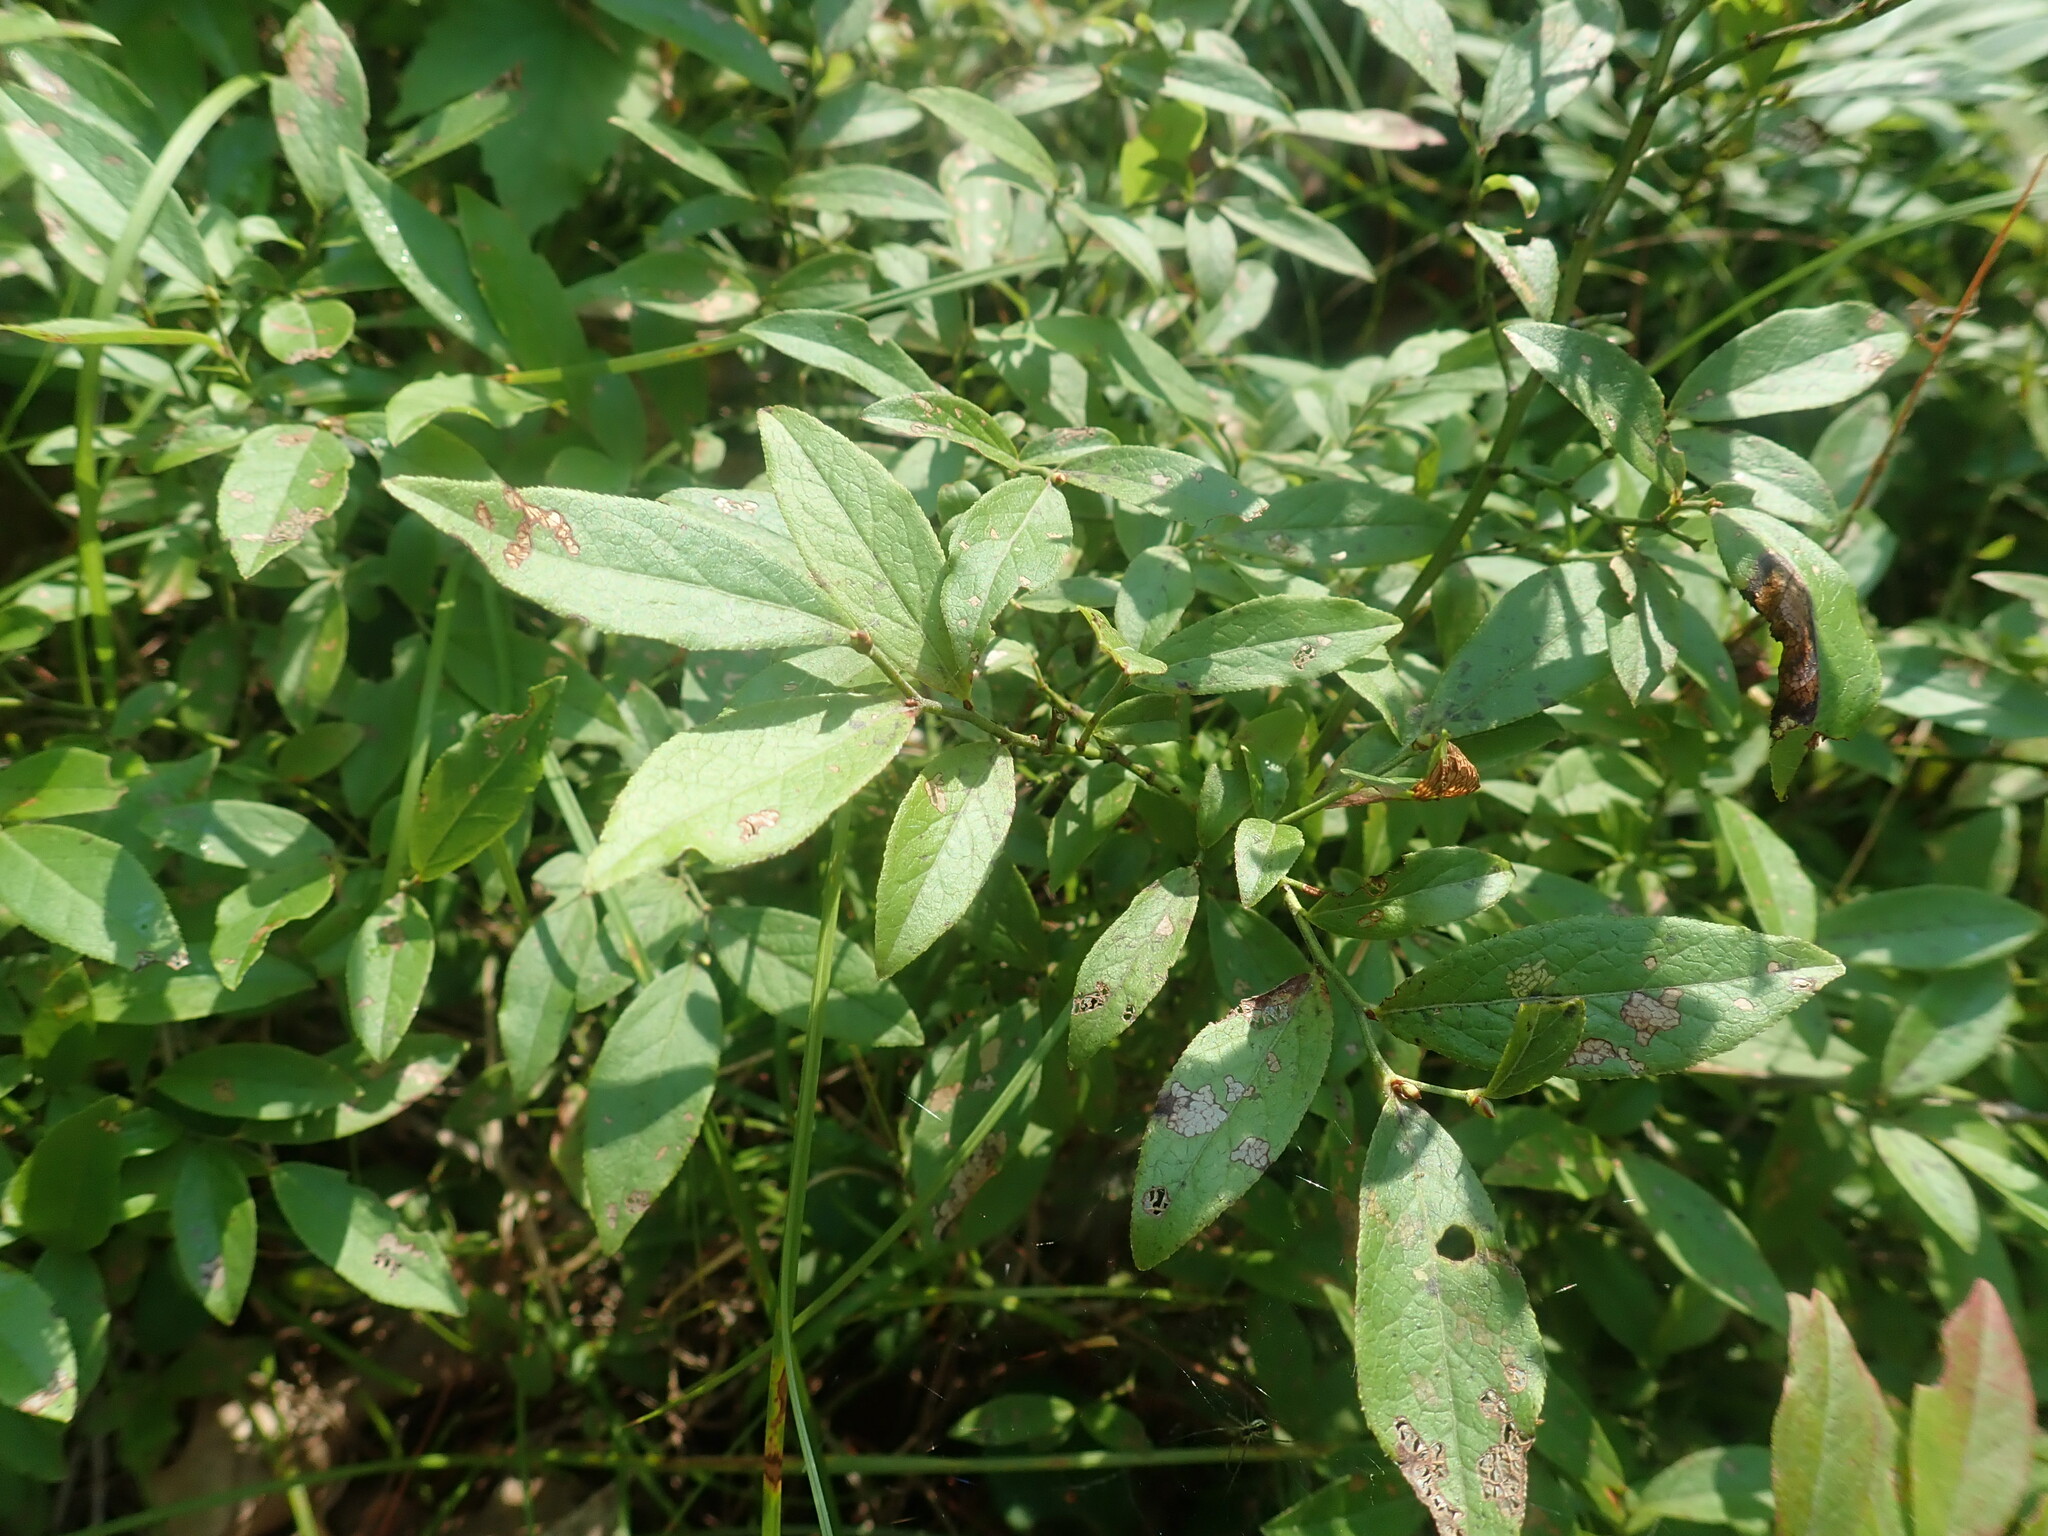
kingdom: Plantae
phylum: Tracheophyta
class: Magnoliopsida
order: Ericales
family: Ericaceae
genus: Vaccinium
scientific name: Vaccinium angustifolium
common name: Early lowbush blueberry
